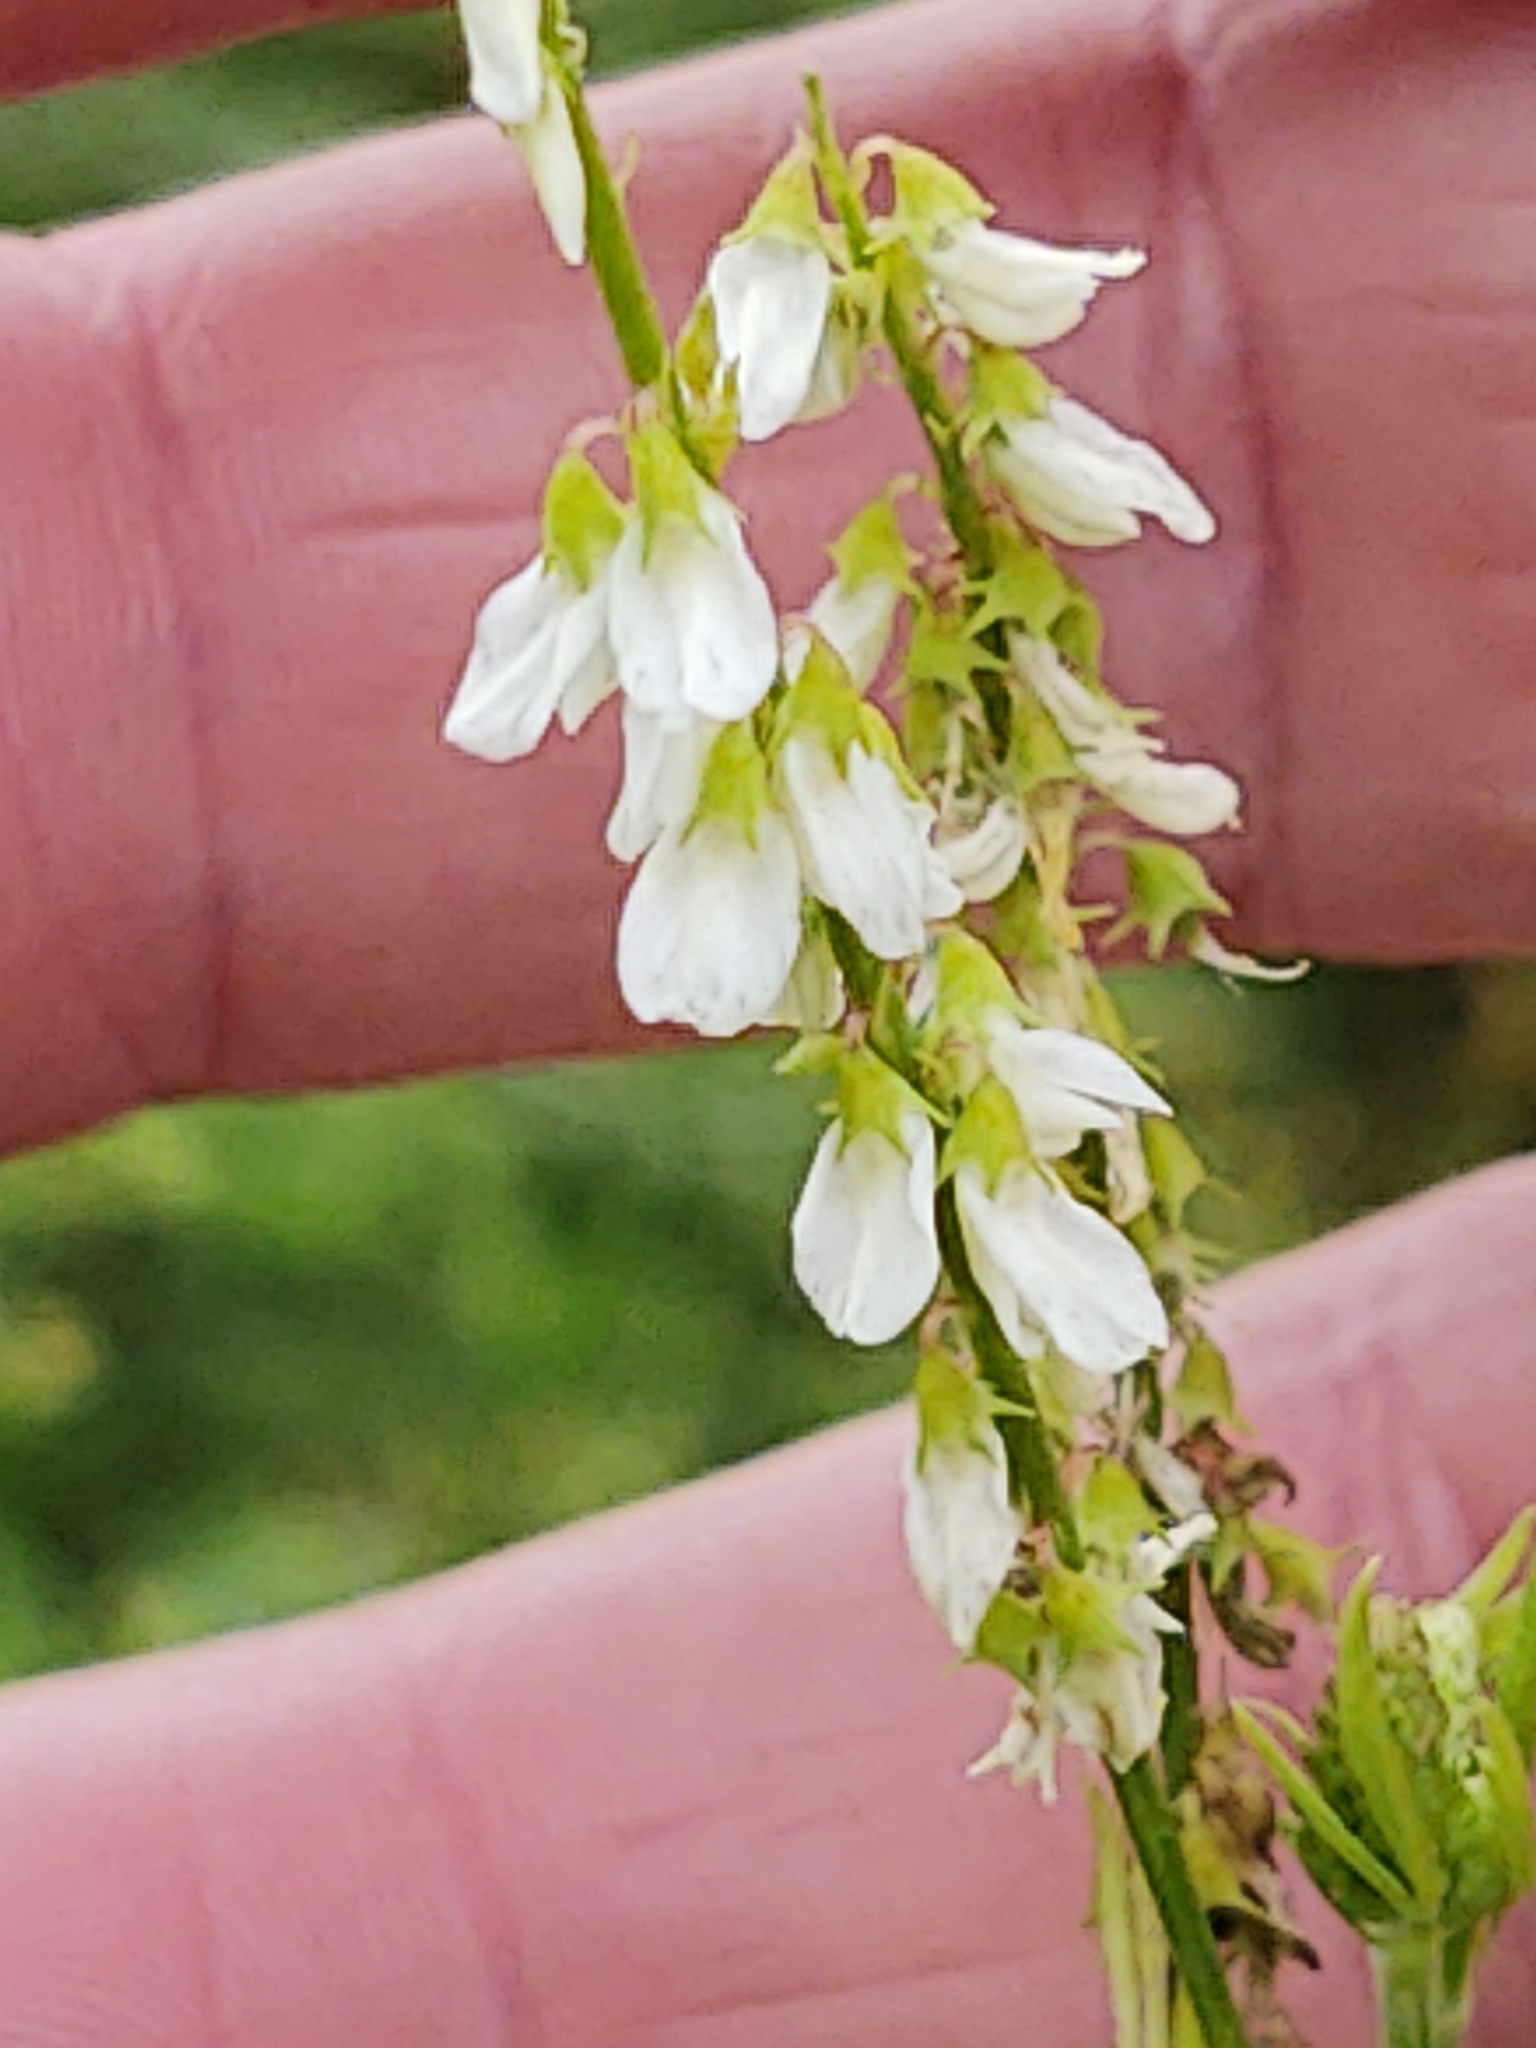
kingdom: Plantae
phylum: Tracheophyta
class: Magnoliopsida
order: Fabales
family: Fabaceae
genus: Melilotus
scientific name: Melilotus albus
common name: White melilot
